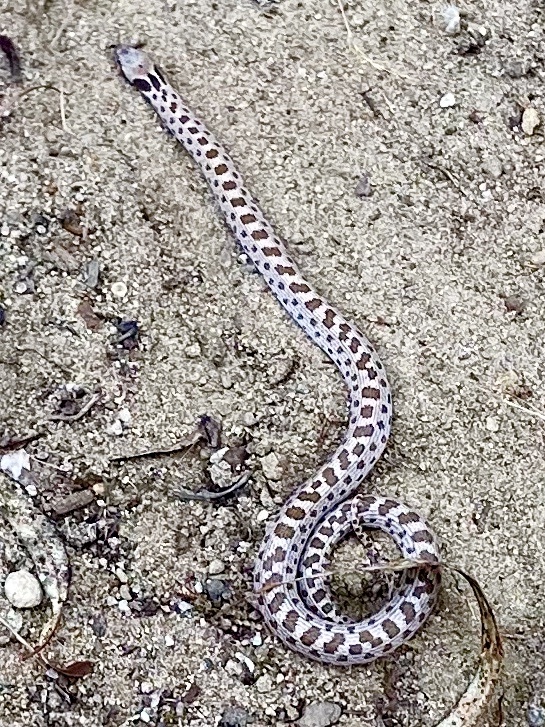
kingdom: Animalia
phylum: Chordata
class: Squamata
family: Colubridae
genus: Hypsiglena
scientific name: Hypsiglena ochrorhynchus
